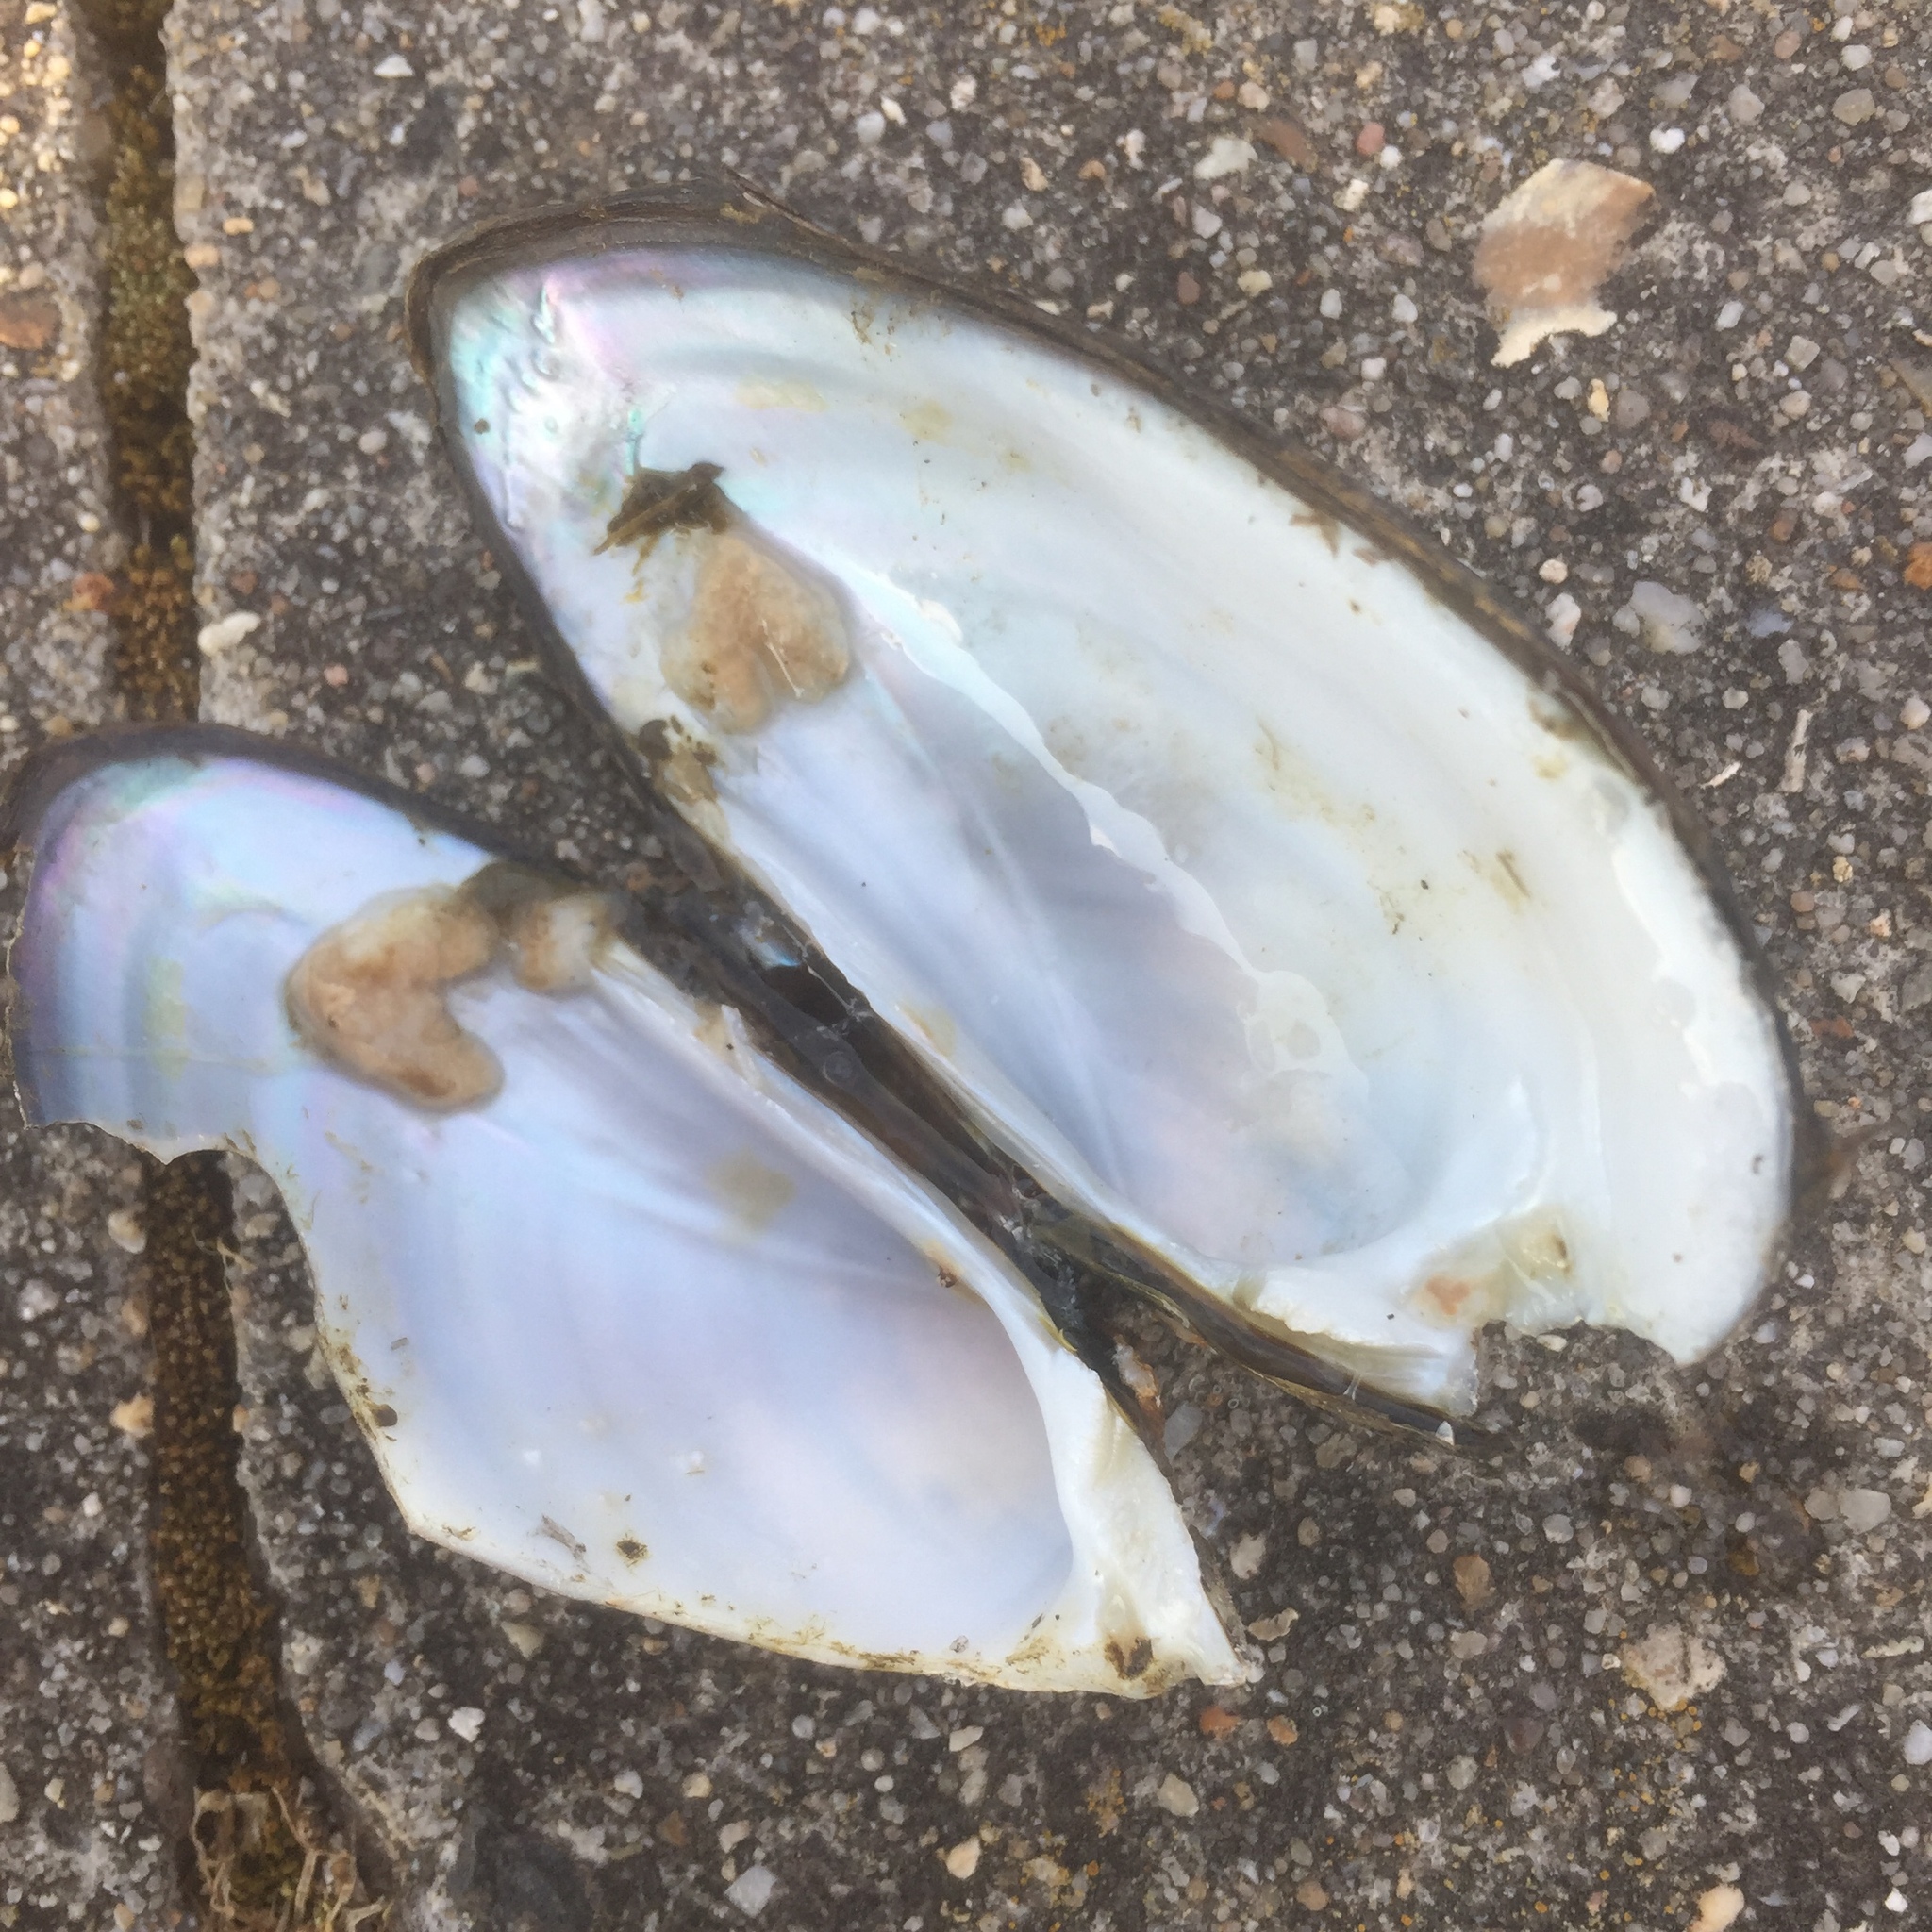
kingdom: Animalia
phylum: Mollusca
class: Bivalvia
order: Unionida
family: Unionidae
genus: Unio
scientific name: Unio tumidus
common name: Swollen river mussel
